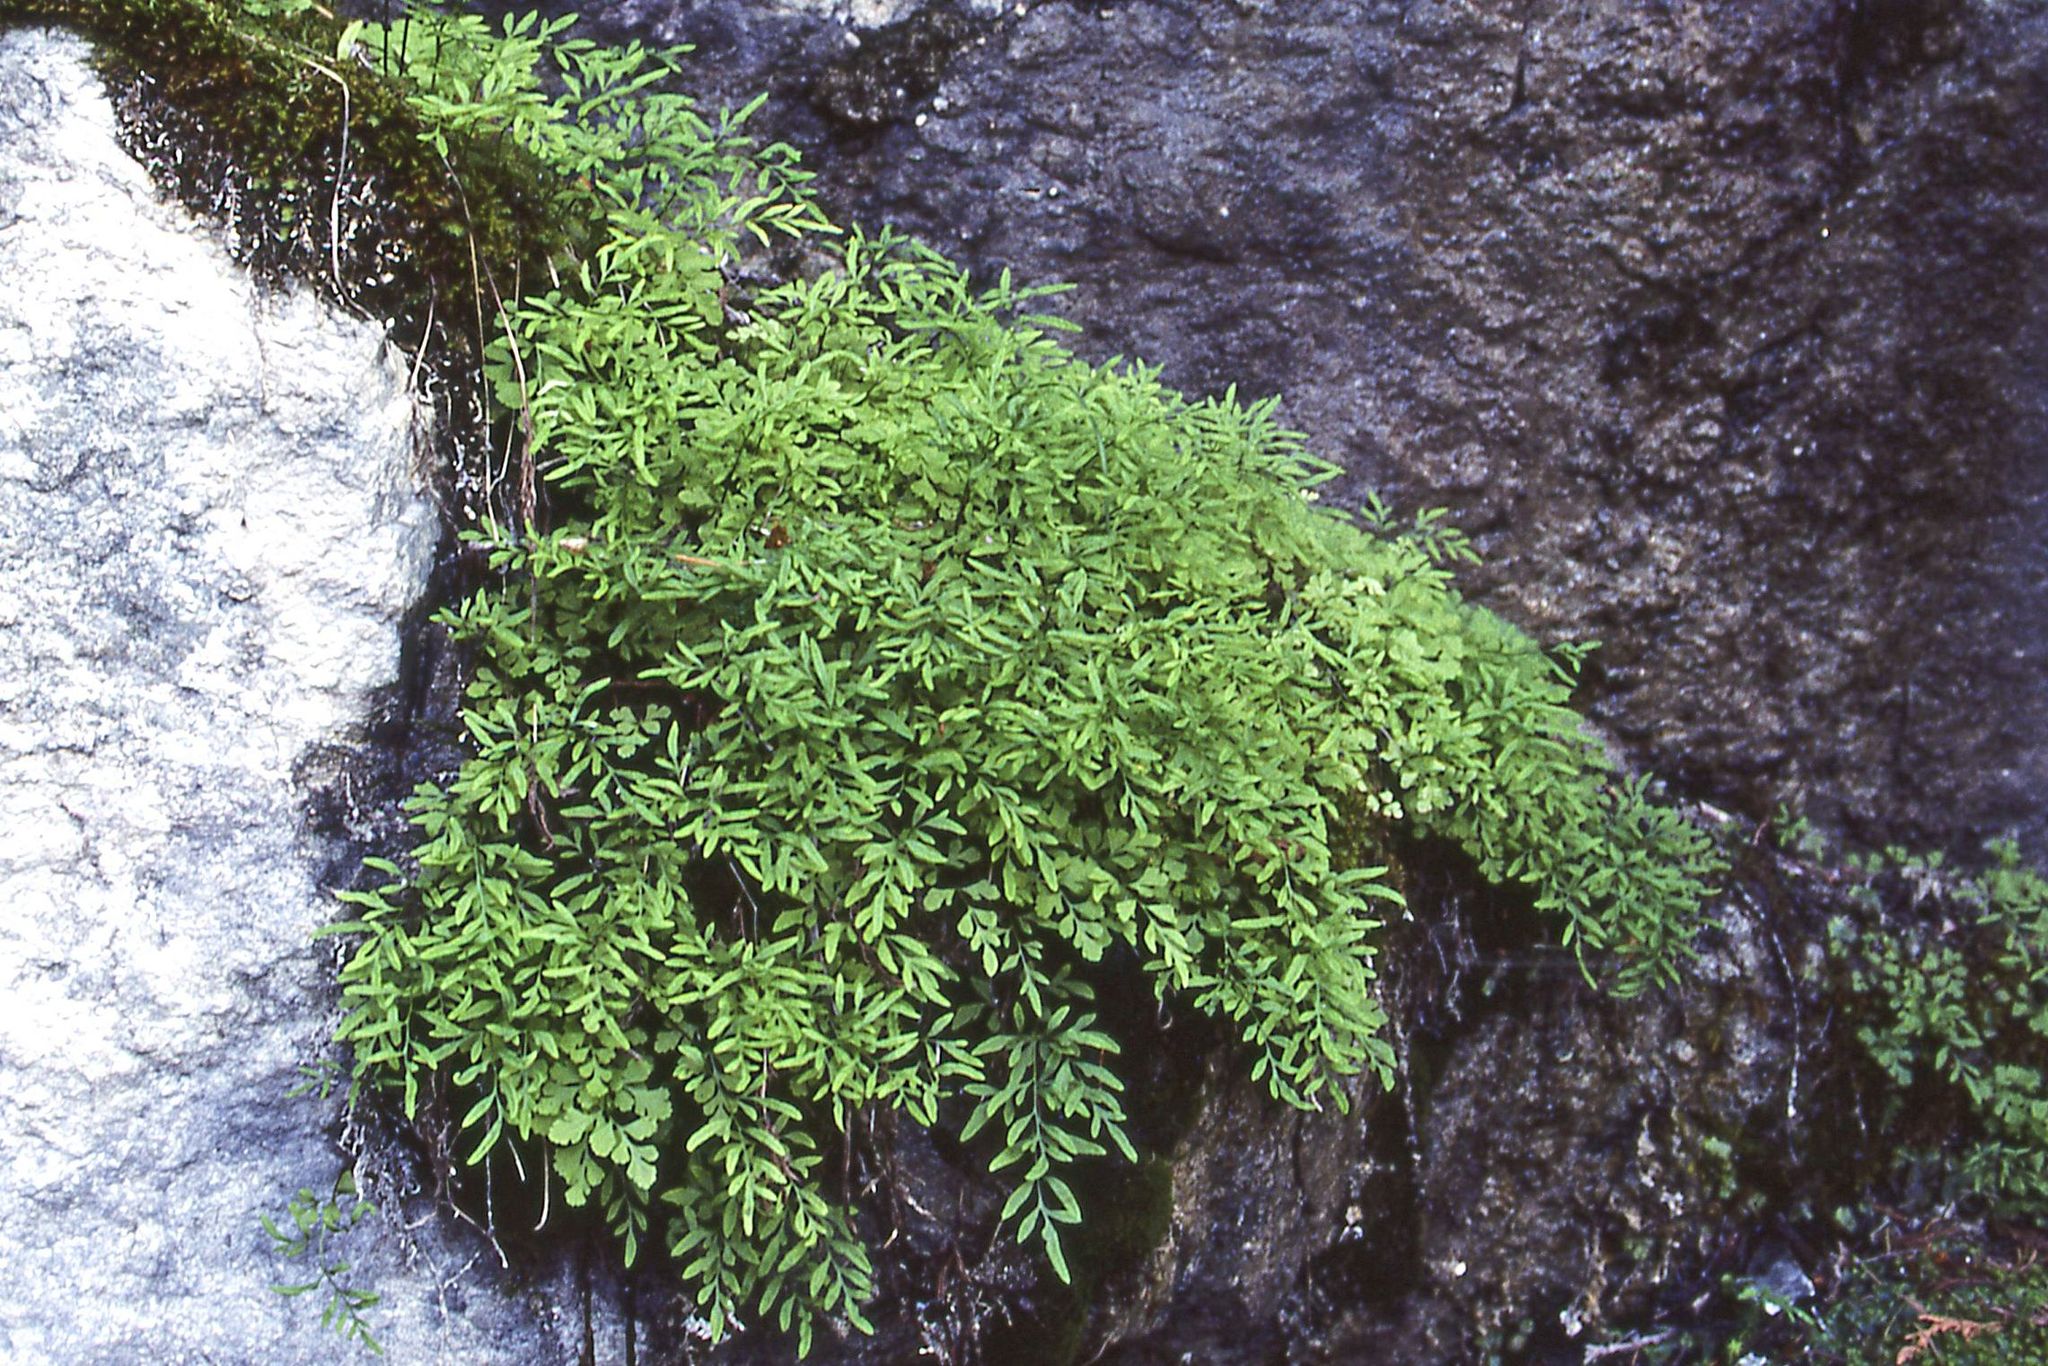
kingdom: Plantae
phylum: Tracheophyta
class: Polypodiopsida
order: Polypodiales
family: Pteridaceae
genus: Cryptogramma
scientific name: Cryptogramma stelleri
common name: Cliff-brake
